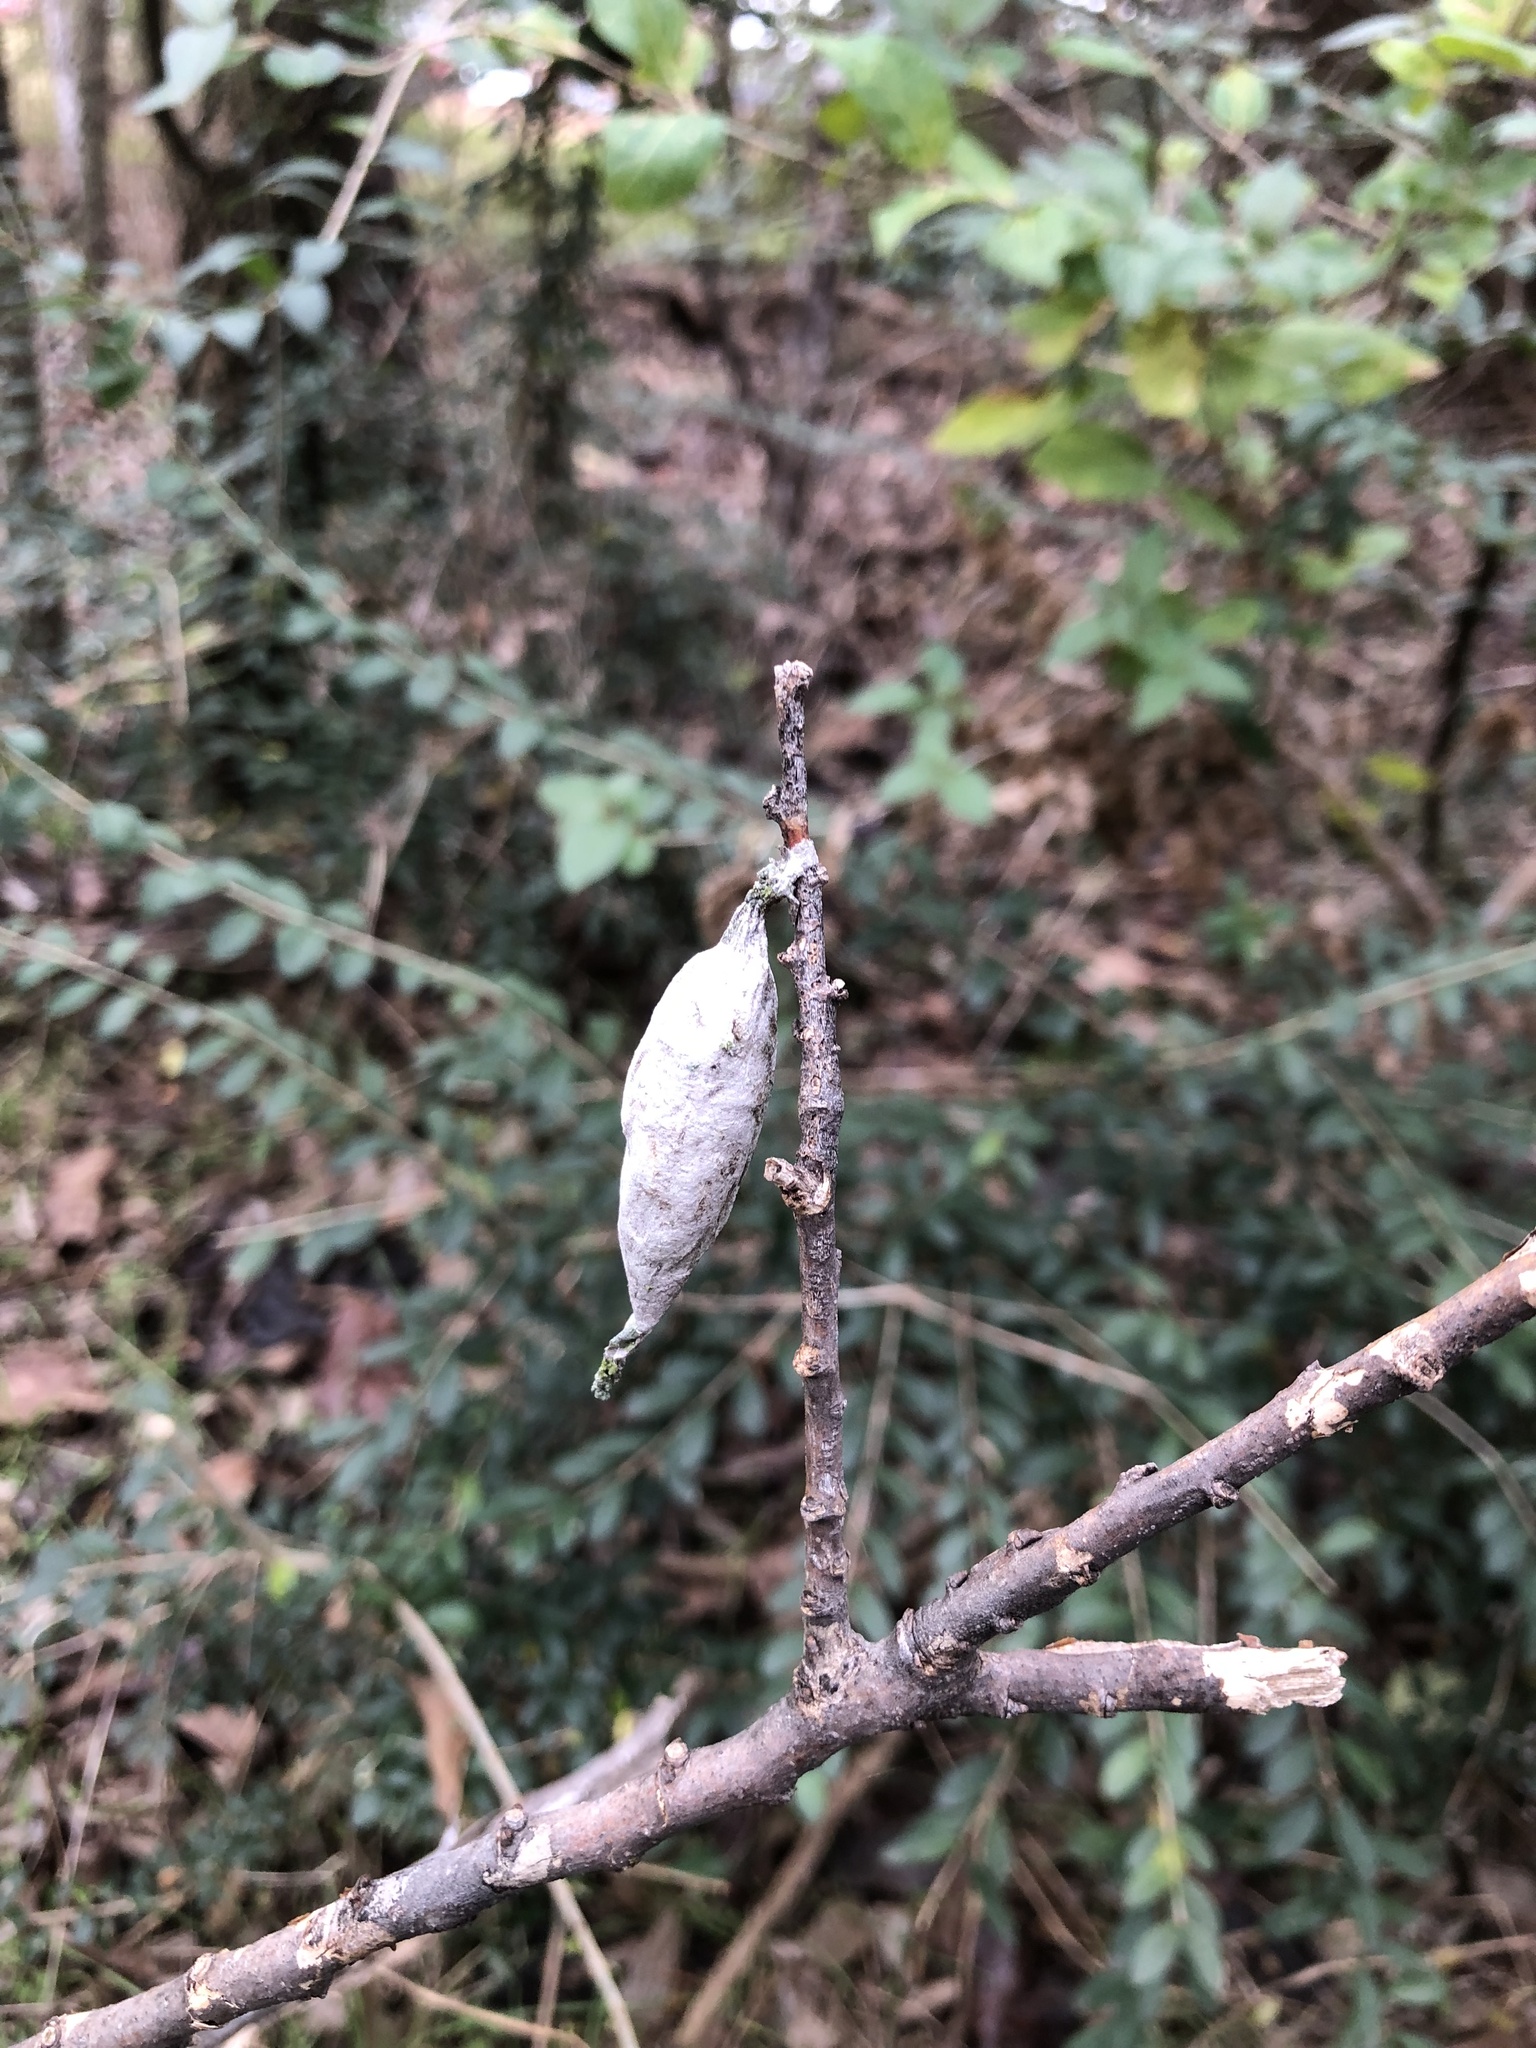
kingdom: Animalia
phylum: Arthropoda
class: Insecta
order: Lepidoptera
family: Psychidae
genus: Thyridopteryx
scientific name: Thyridopteryx ephemeraeformis
